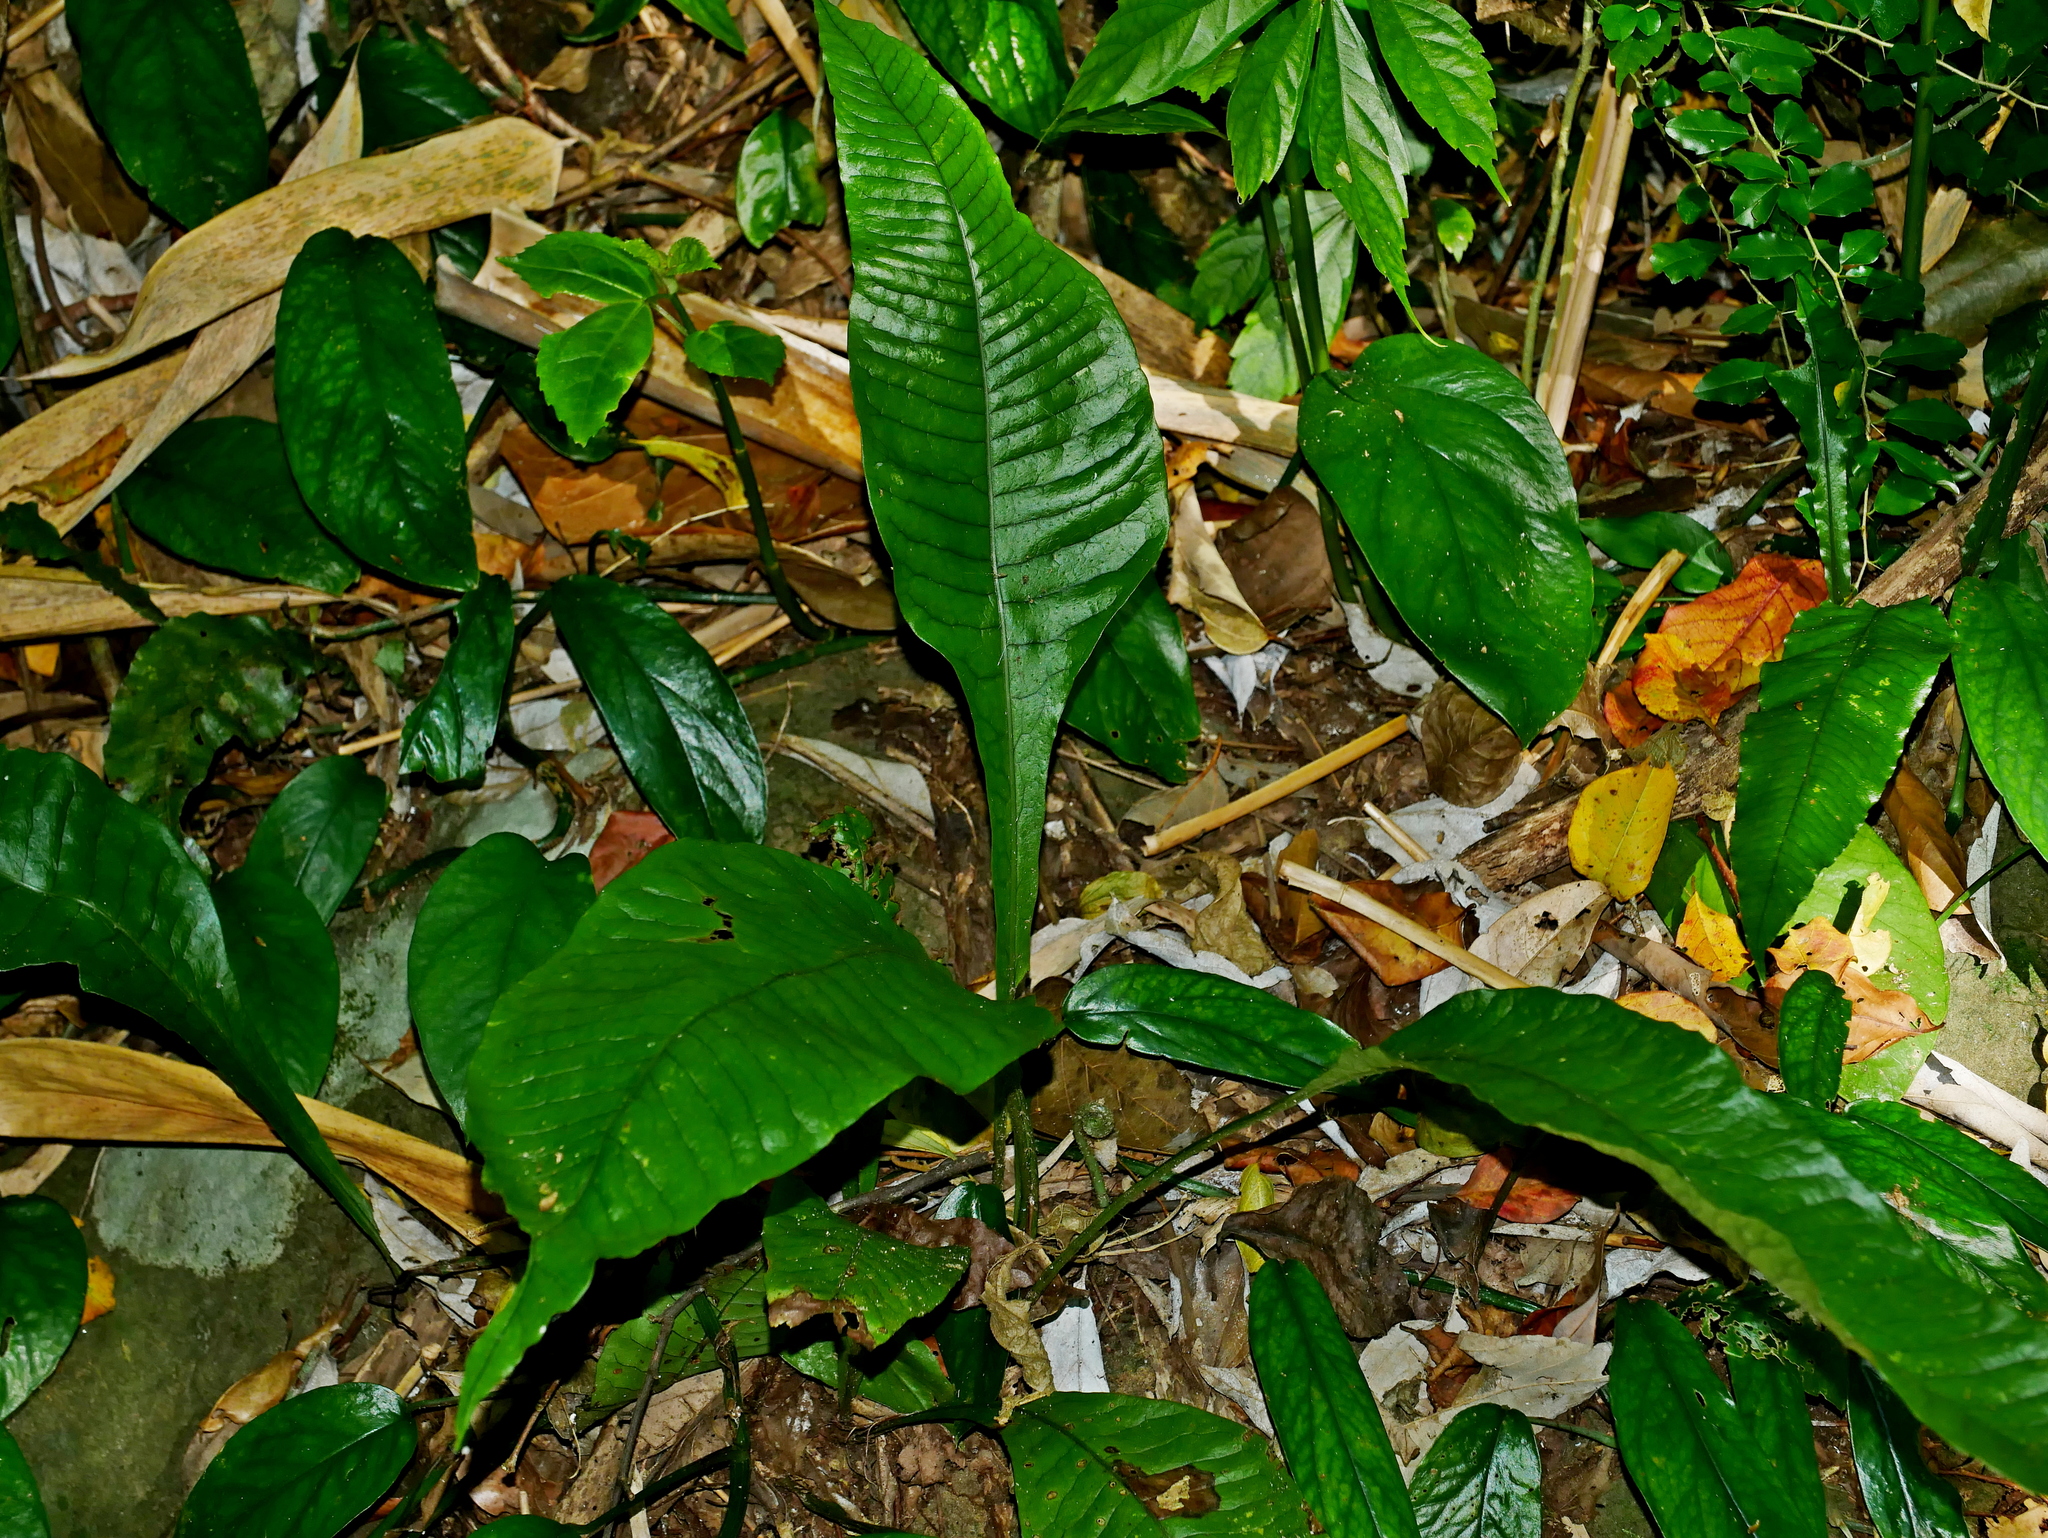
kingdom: Plantae
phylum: Tracheophyta
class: Polypodiopsida
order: Polypodiales
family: Polypodiaceae
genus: Leptochilus
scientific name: Leptochilus decurrens
